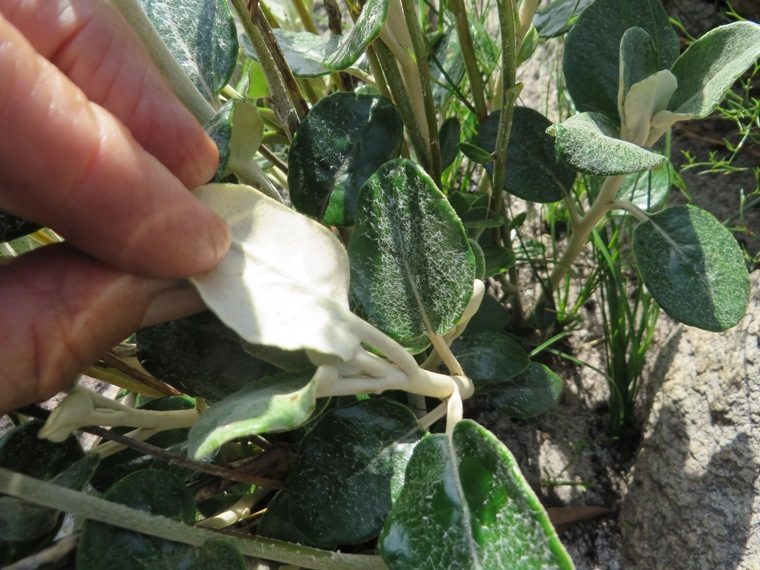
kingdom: Plantae
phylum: Tracheophyta
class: Magnoliopsida
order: Asterales
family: Asteraceae
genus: Capelio
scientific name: Capelio tabularis
